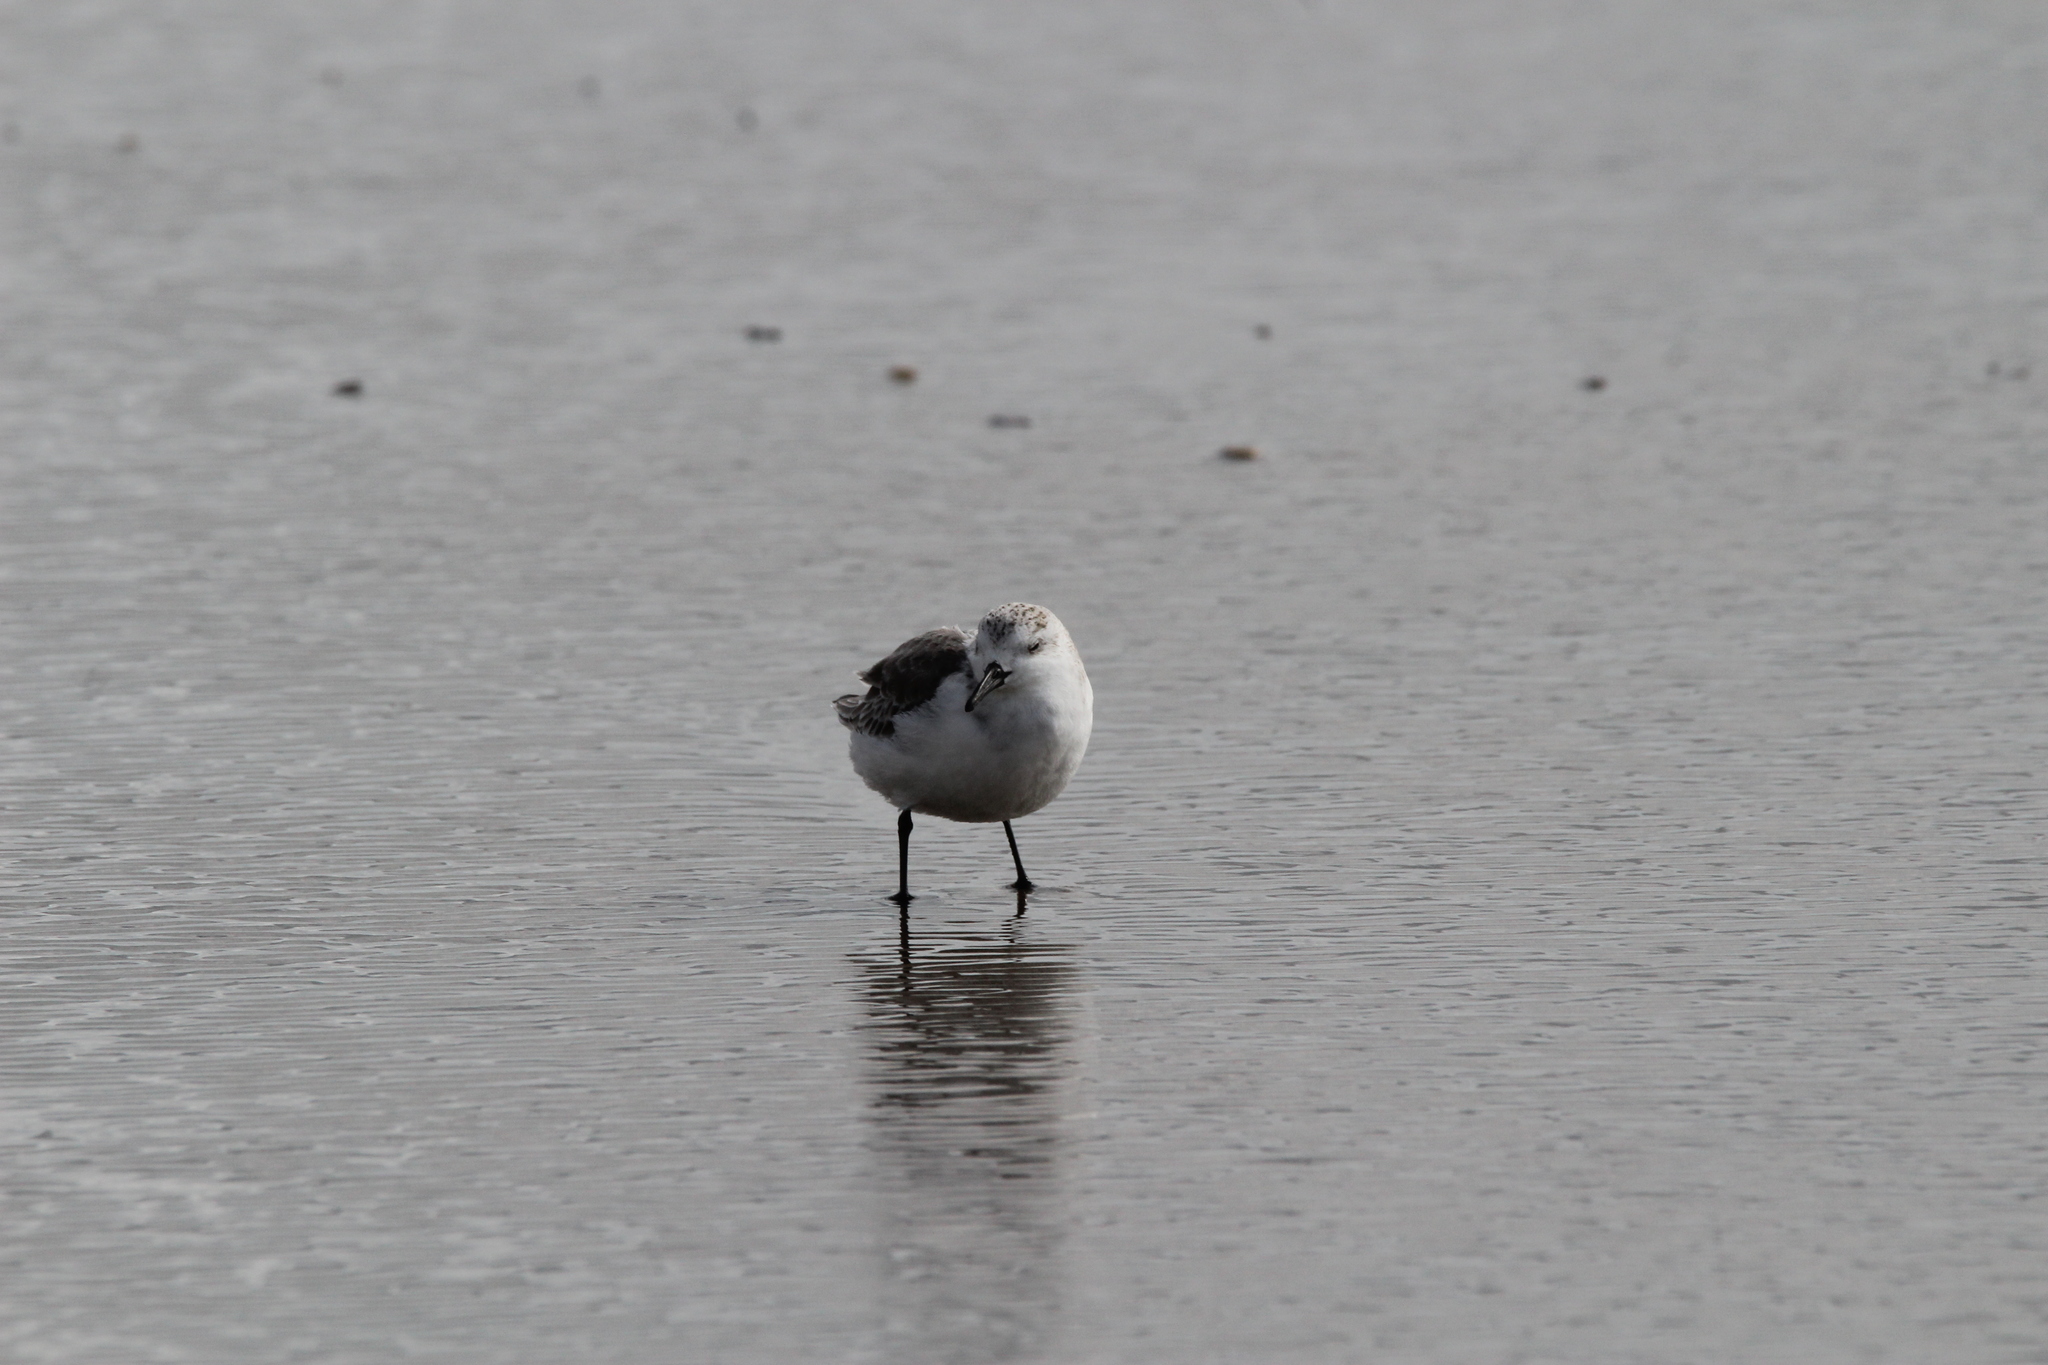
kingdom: Animalia
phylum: Chordata
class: Aves
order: Charadriiformes
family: Scolopacidae
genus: Calidris
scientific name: Calidris alba
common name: Sanderling
